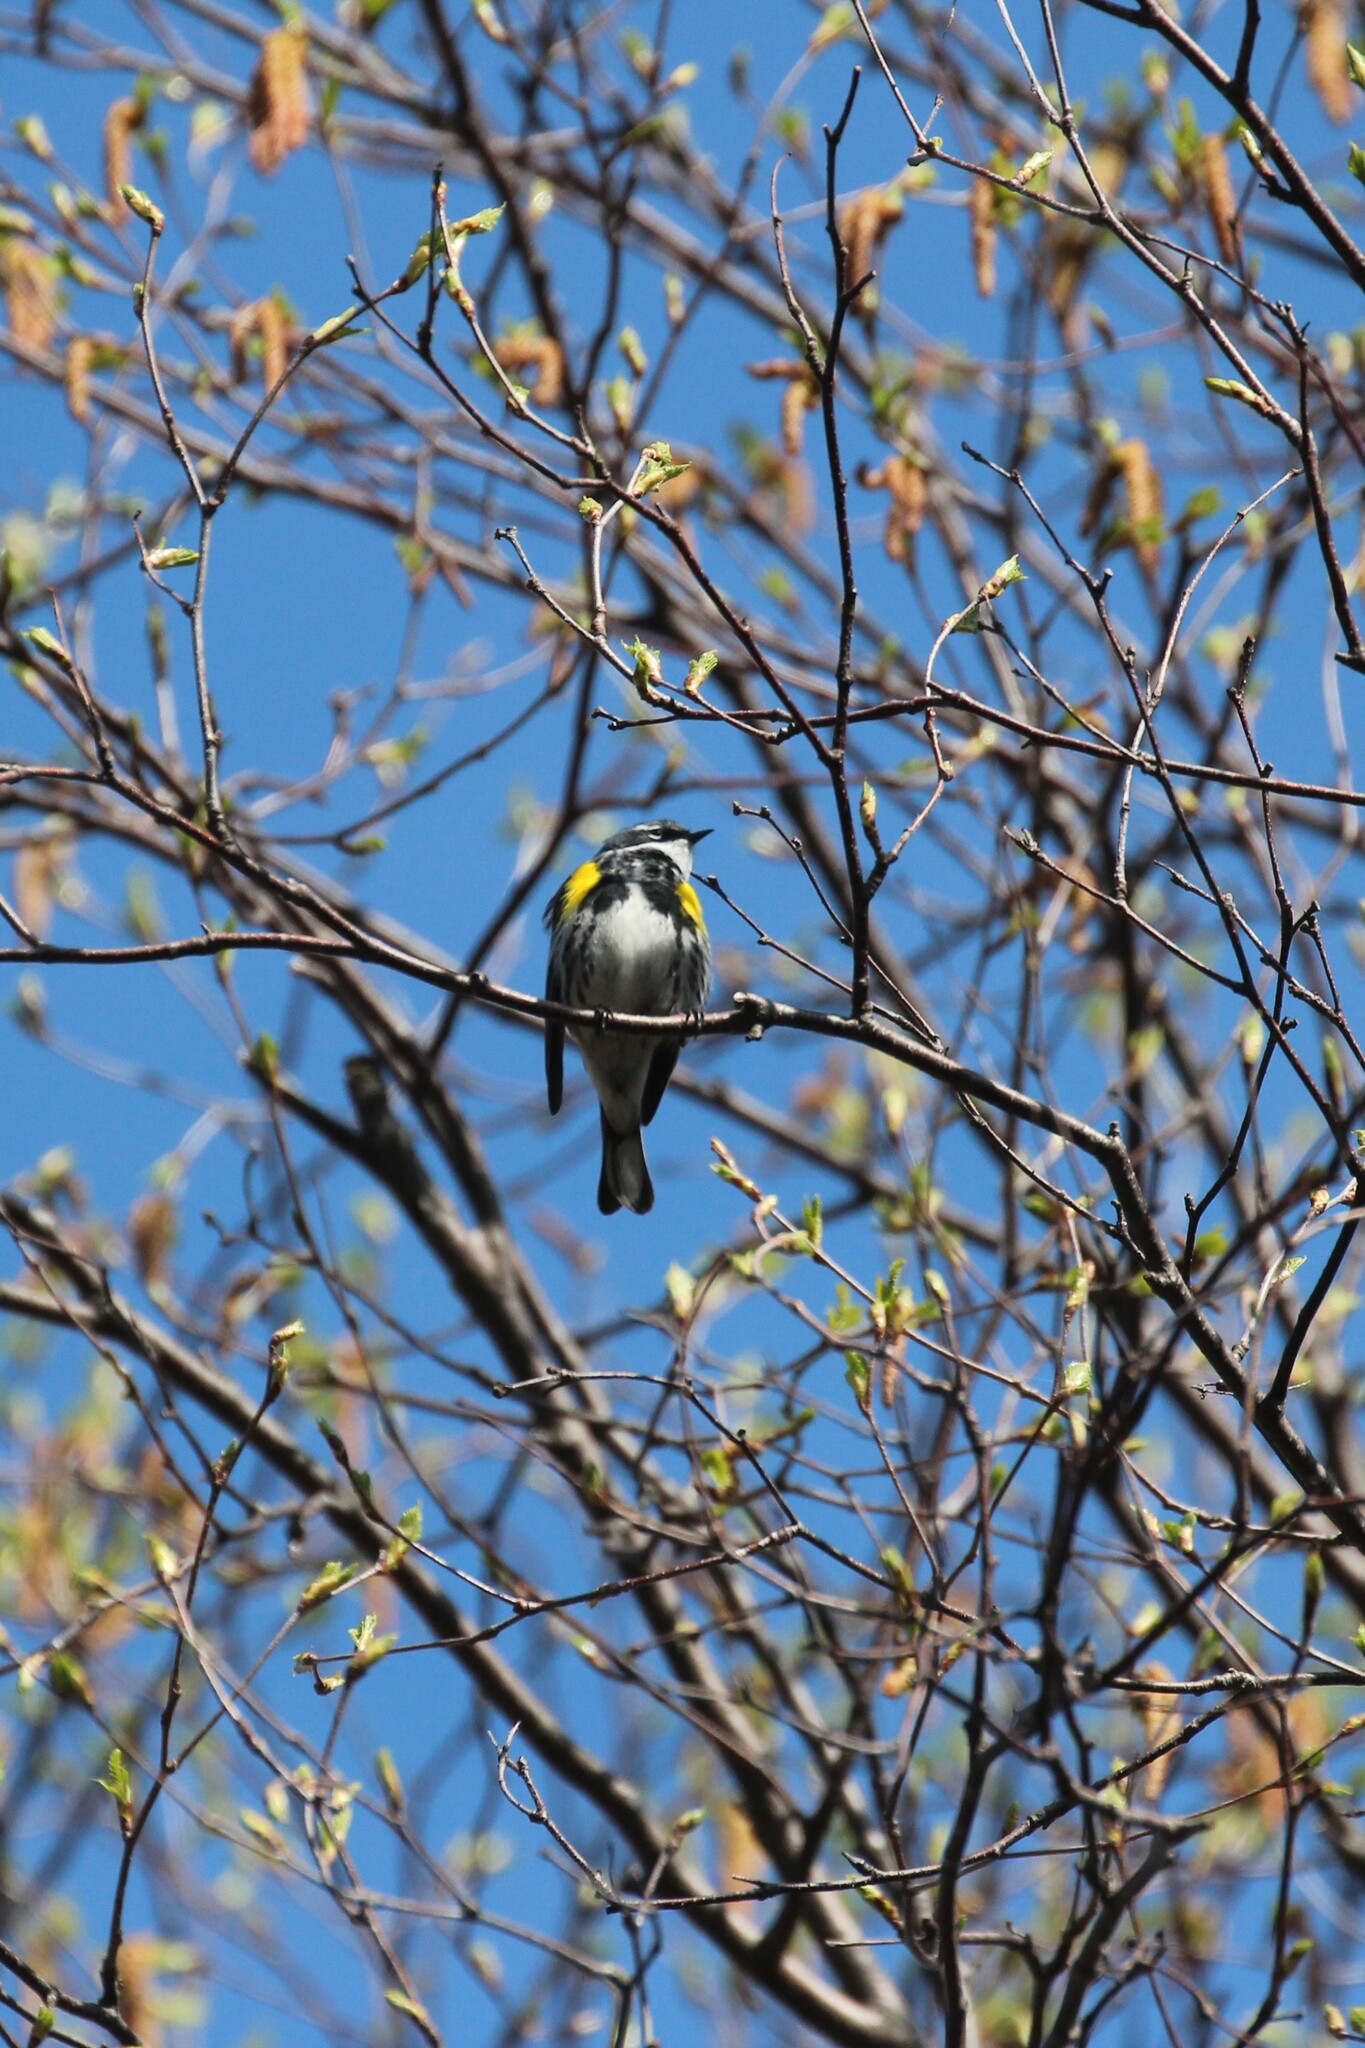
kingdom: Animalia
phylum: Chordata
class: Aves
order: Passeriformes
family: Parulidae
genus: Setophaga
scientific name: Setophaga coronata
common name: Myrtle warbler
